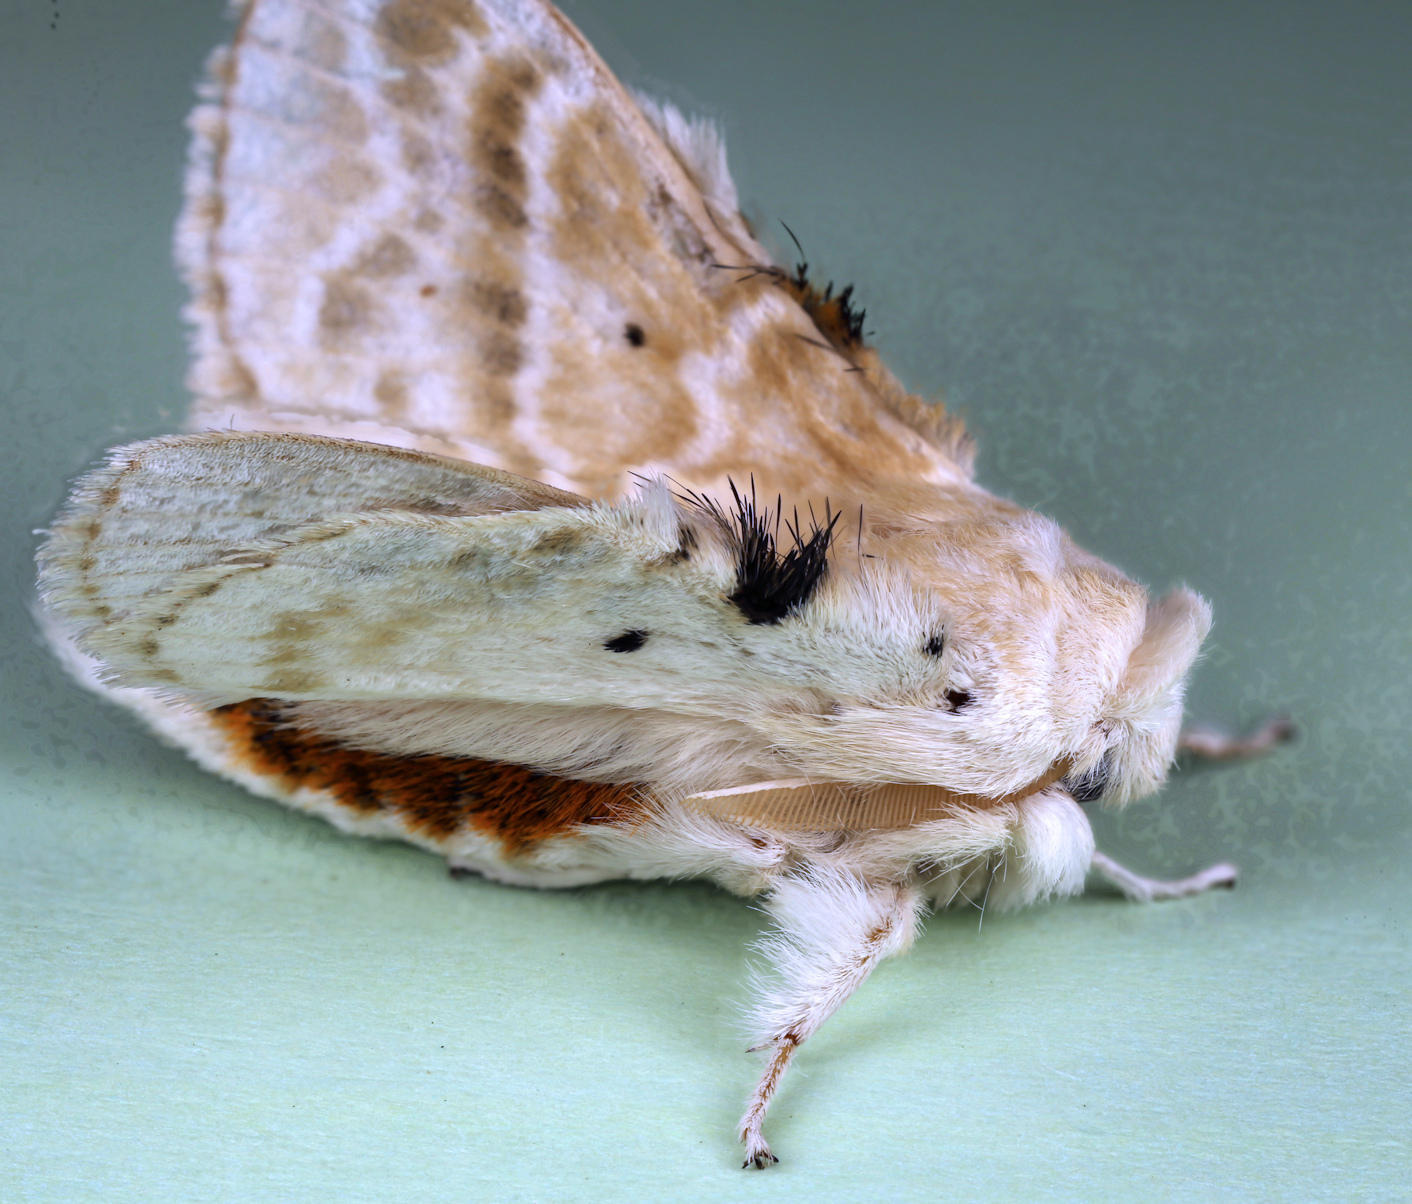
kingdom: Animalia
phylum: Arthropoda
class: Insecta
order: Lepidoptera
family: Lasiocampidae
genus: Eucraera
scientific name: Eucraera gemmata
